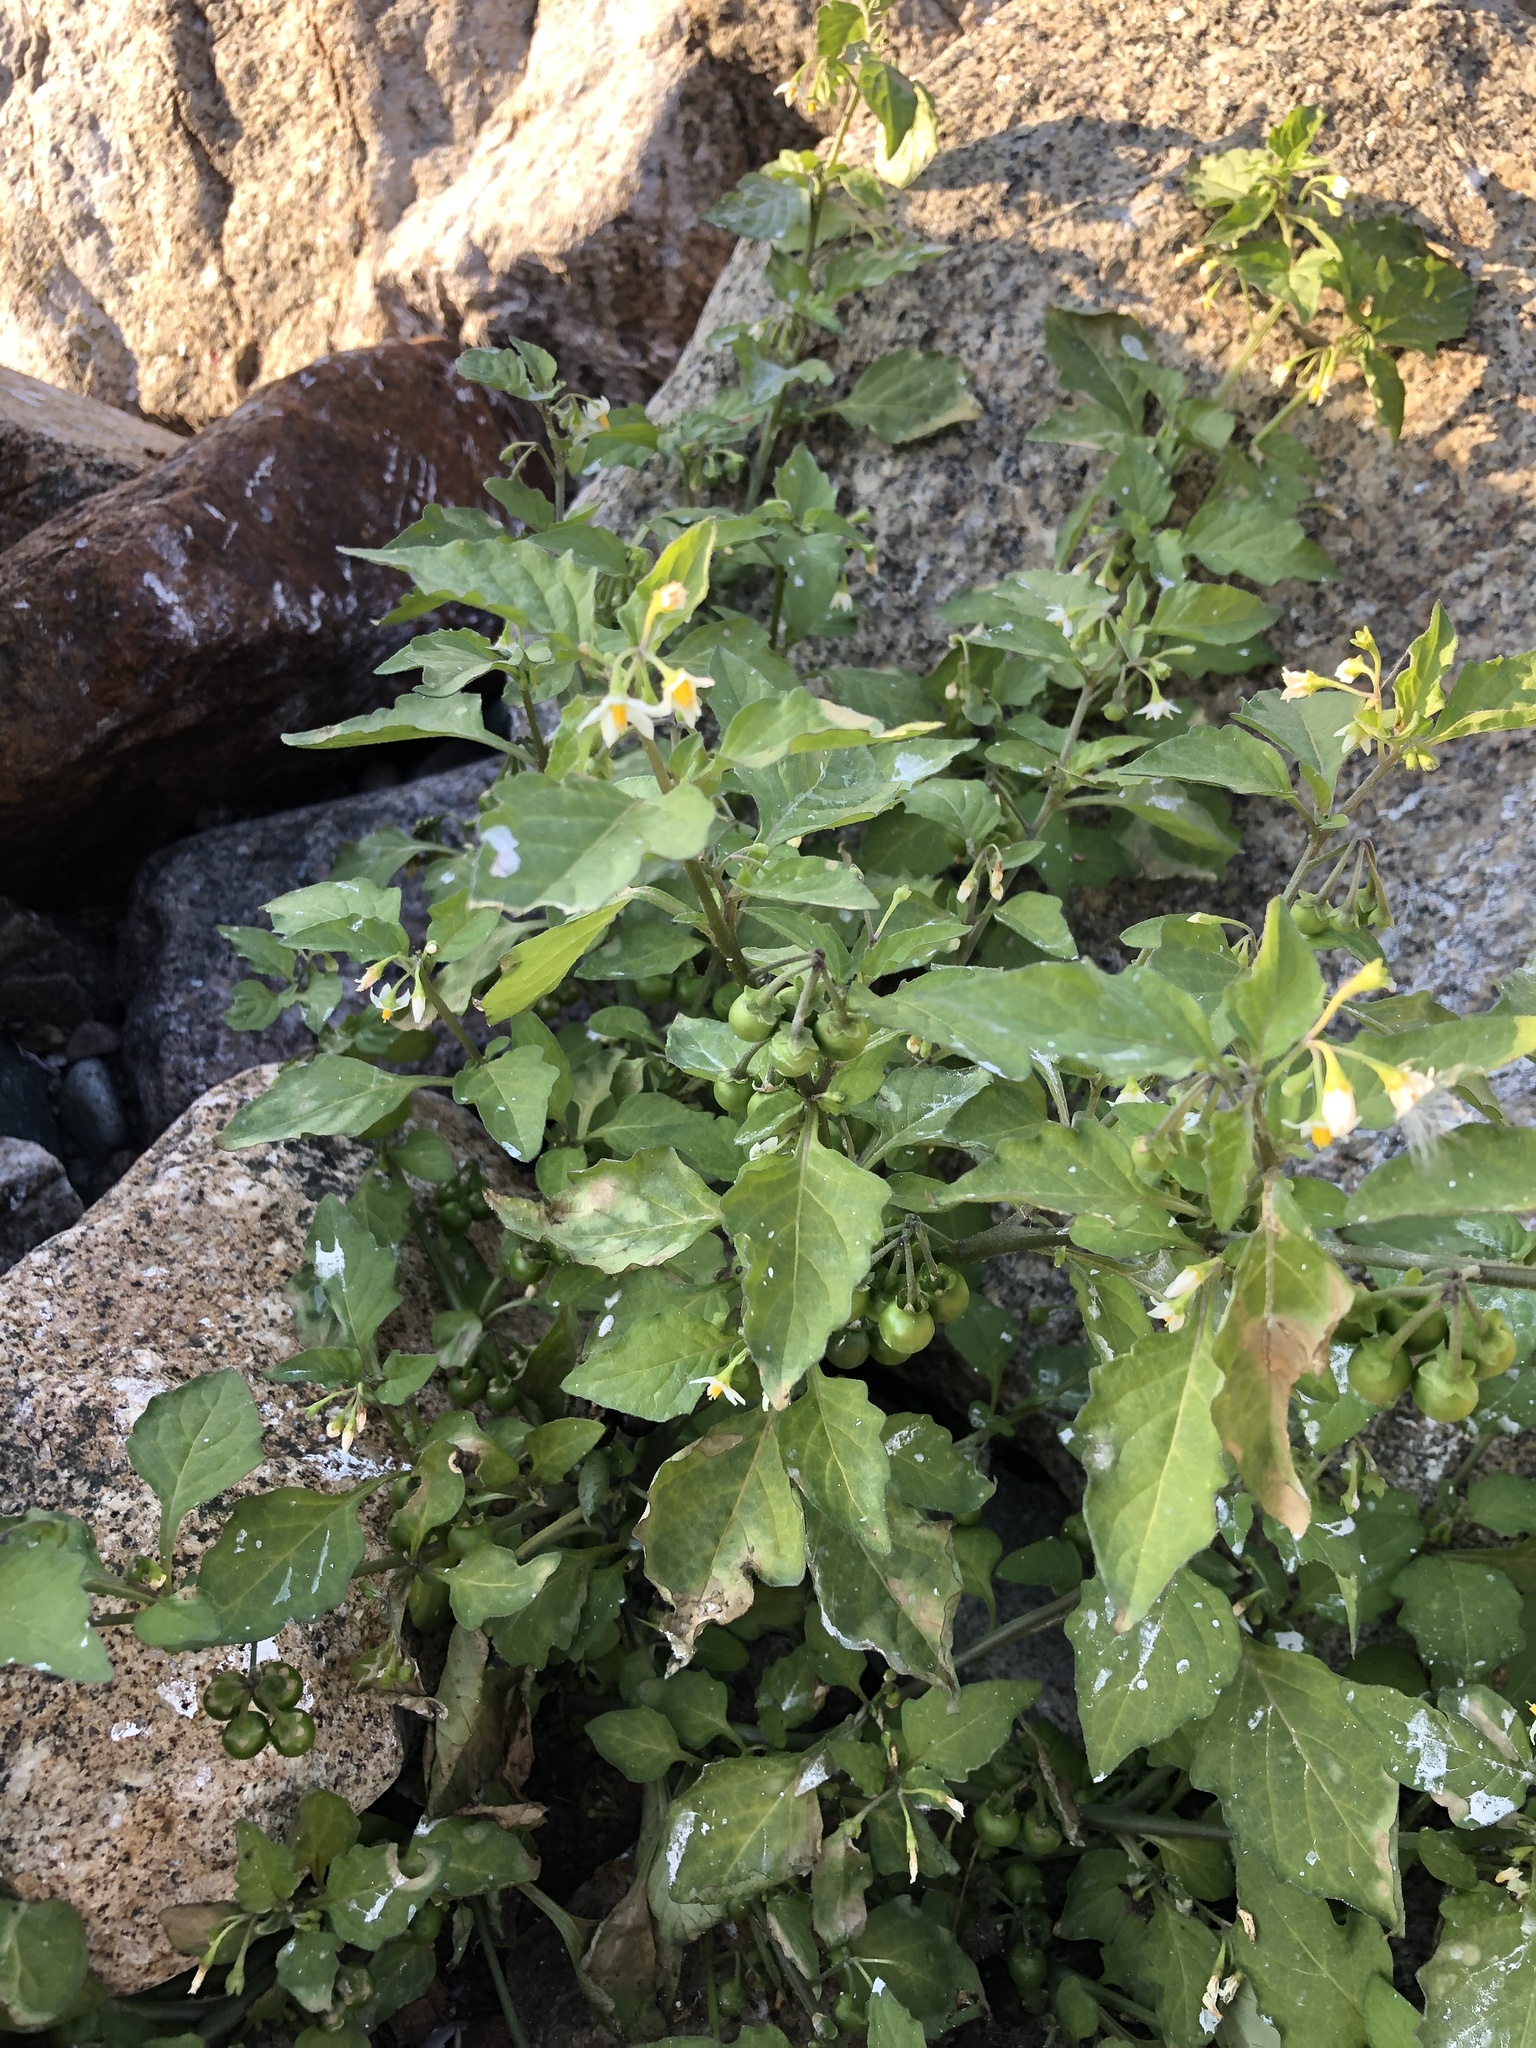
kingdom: Plantae
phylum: Tracheophyta
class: Magnoliopsida
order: Solanales
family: Solanaceae
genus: Solanum
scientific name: Solanum nigrum
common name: Black nightshade
